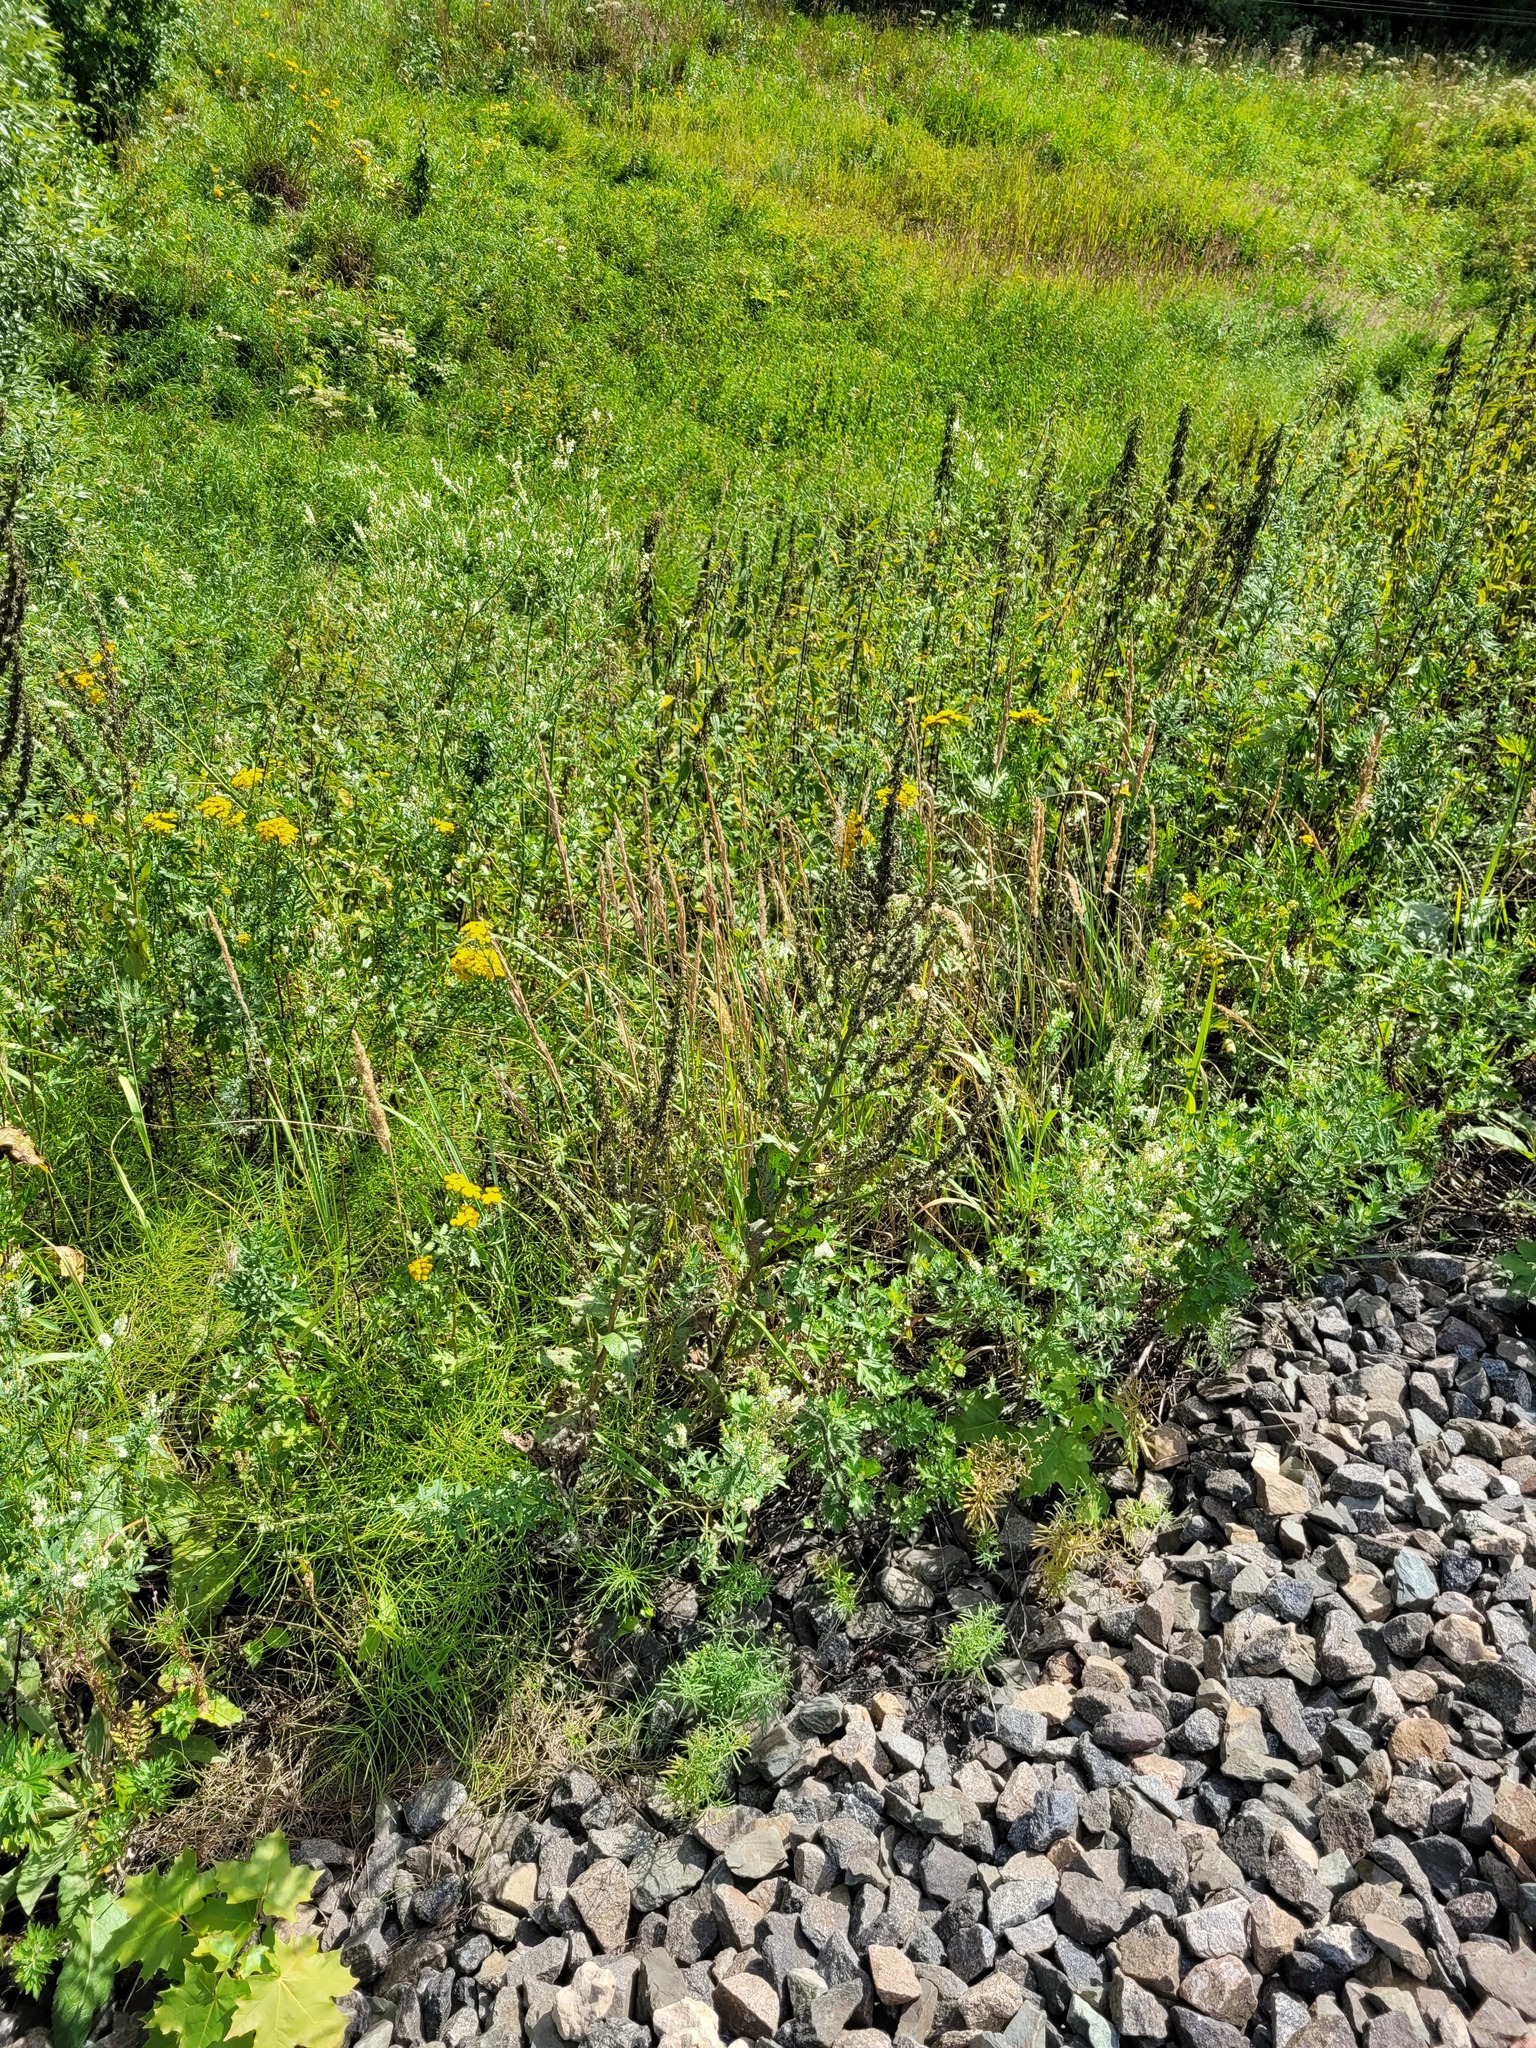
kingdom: Plantae
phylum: Tracheophyta
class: Magnoliopsida
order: Lamiales
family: Scrophulariaceae
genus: Verbascum
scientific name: Verbascum lychnitis
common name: White mullein
